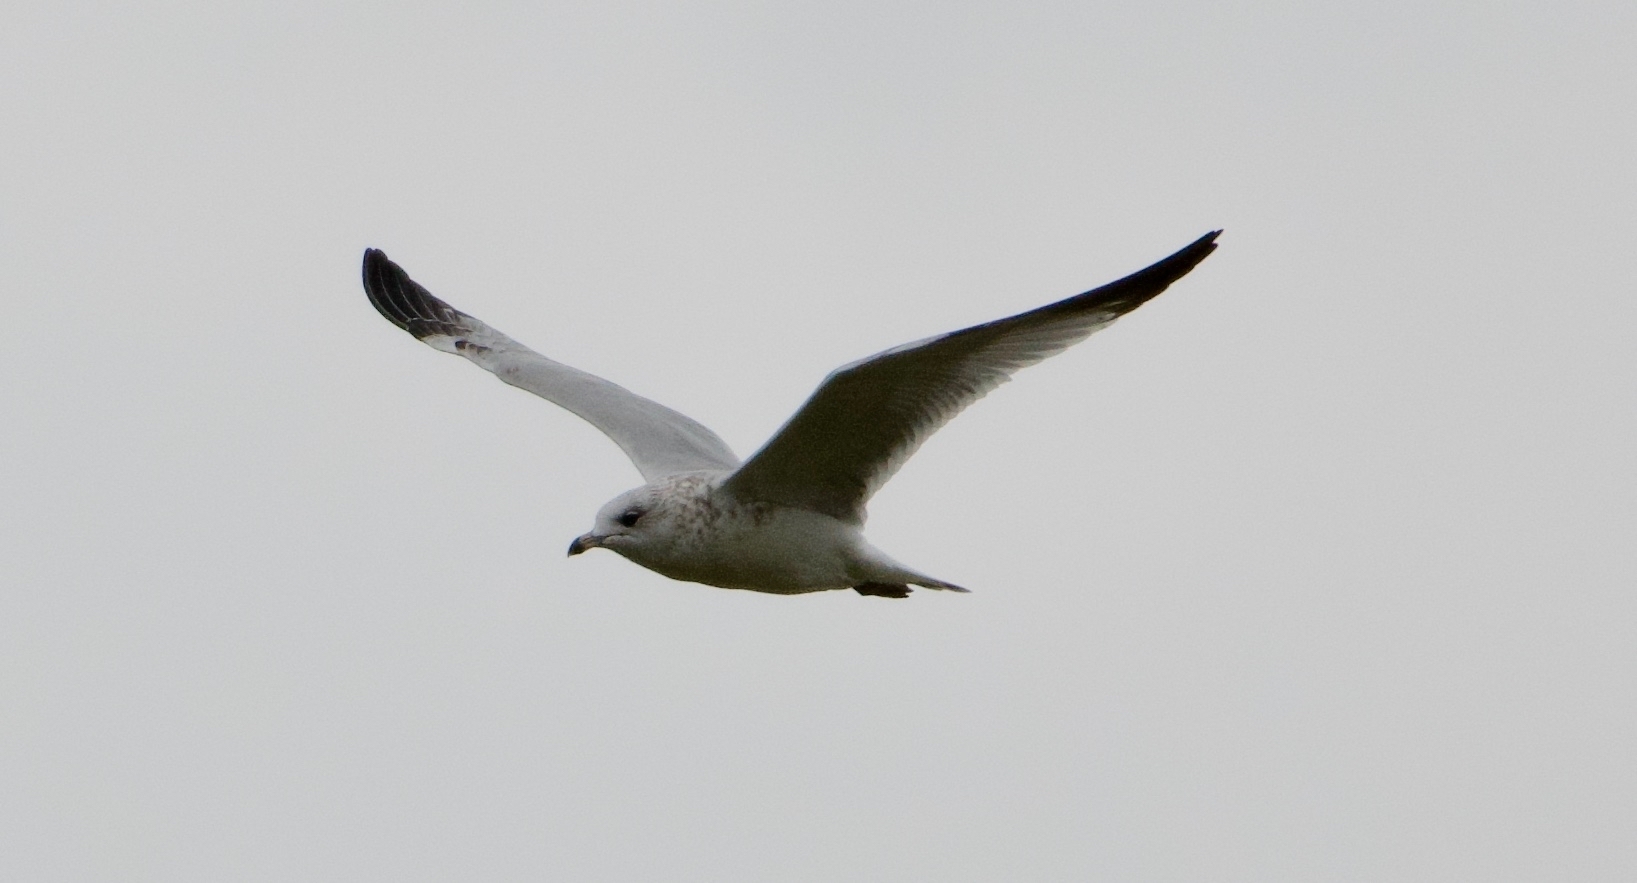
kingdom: Animalia
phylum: Chordata
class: Aves
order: Charadriiformes
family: Laridae
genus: Larus
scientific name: Larus delawarensis
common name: Ring-billed gull
